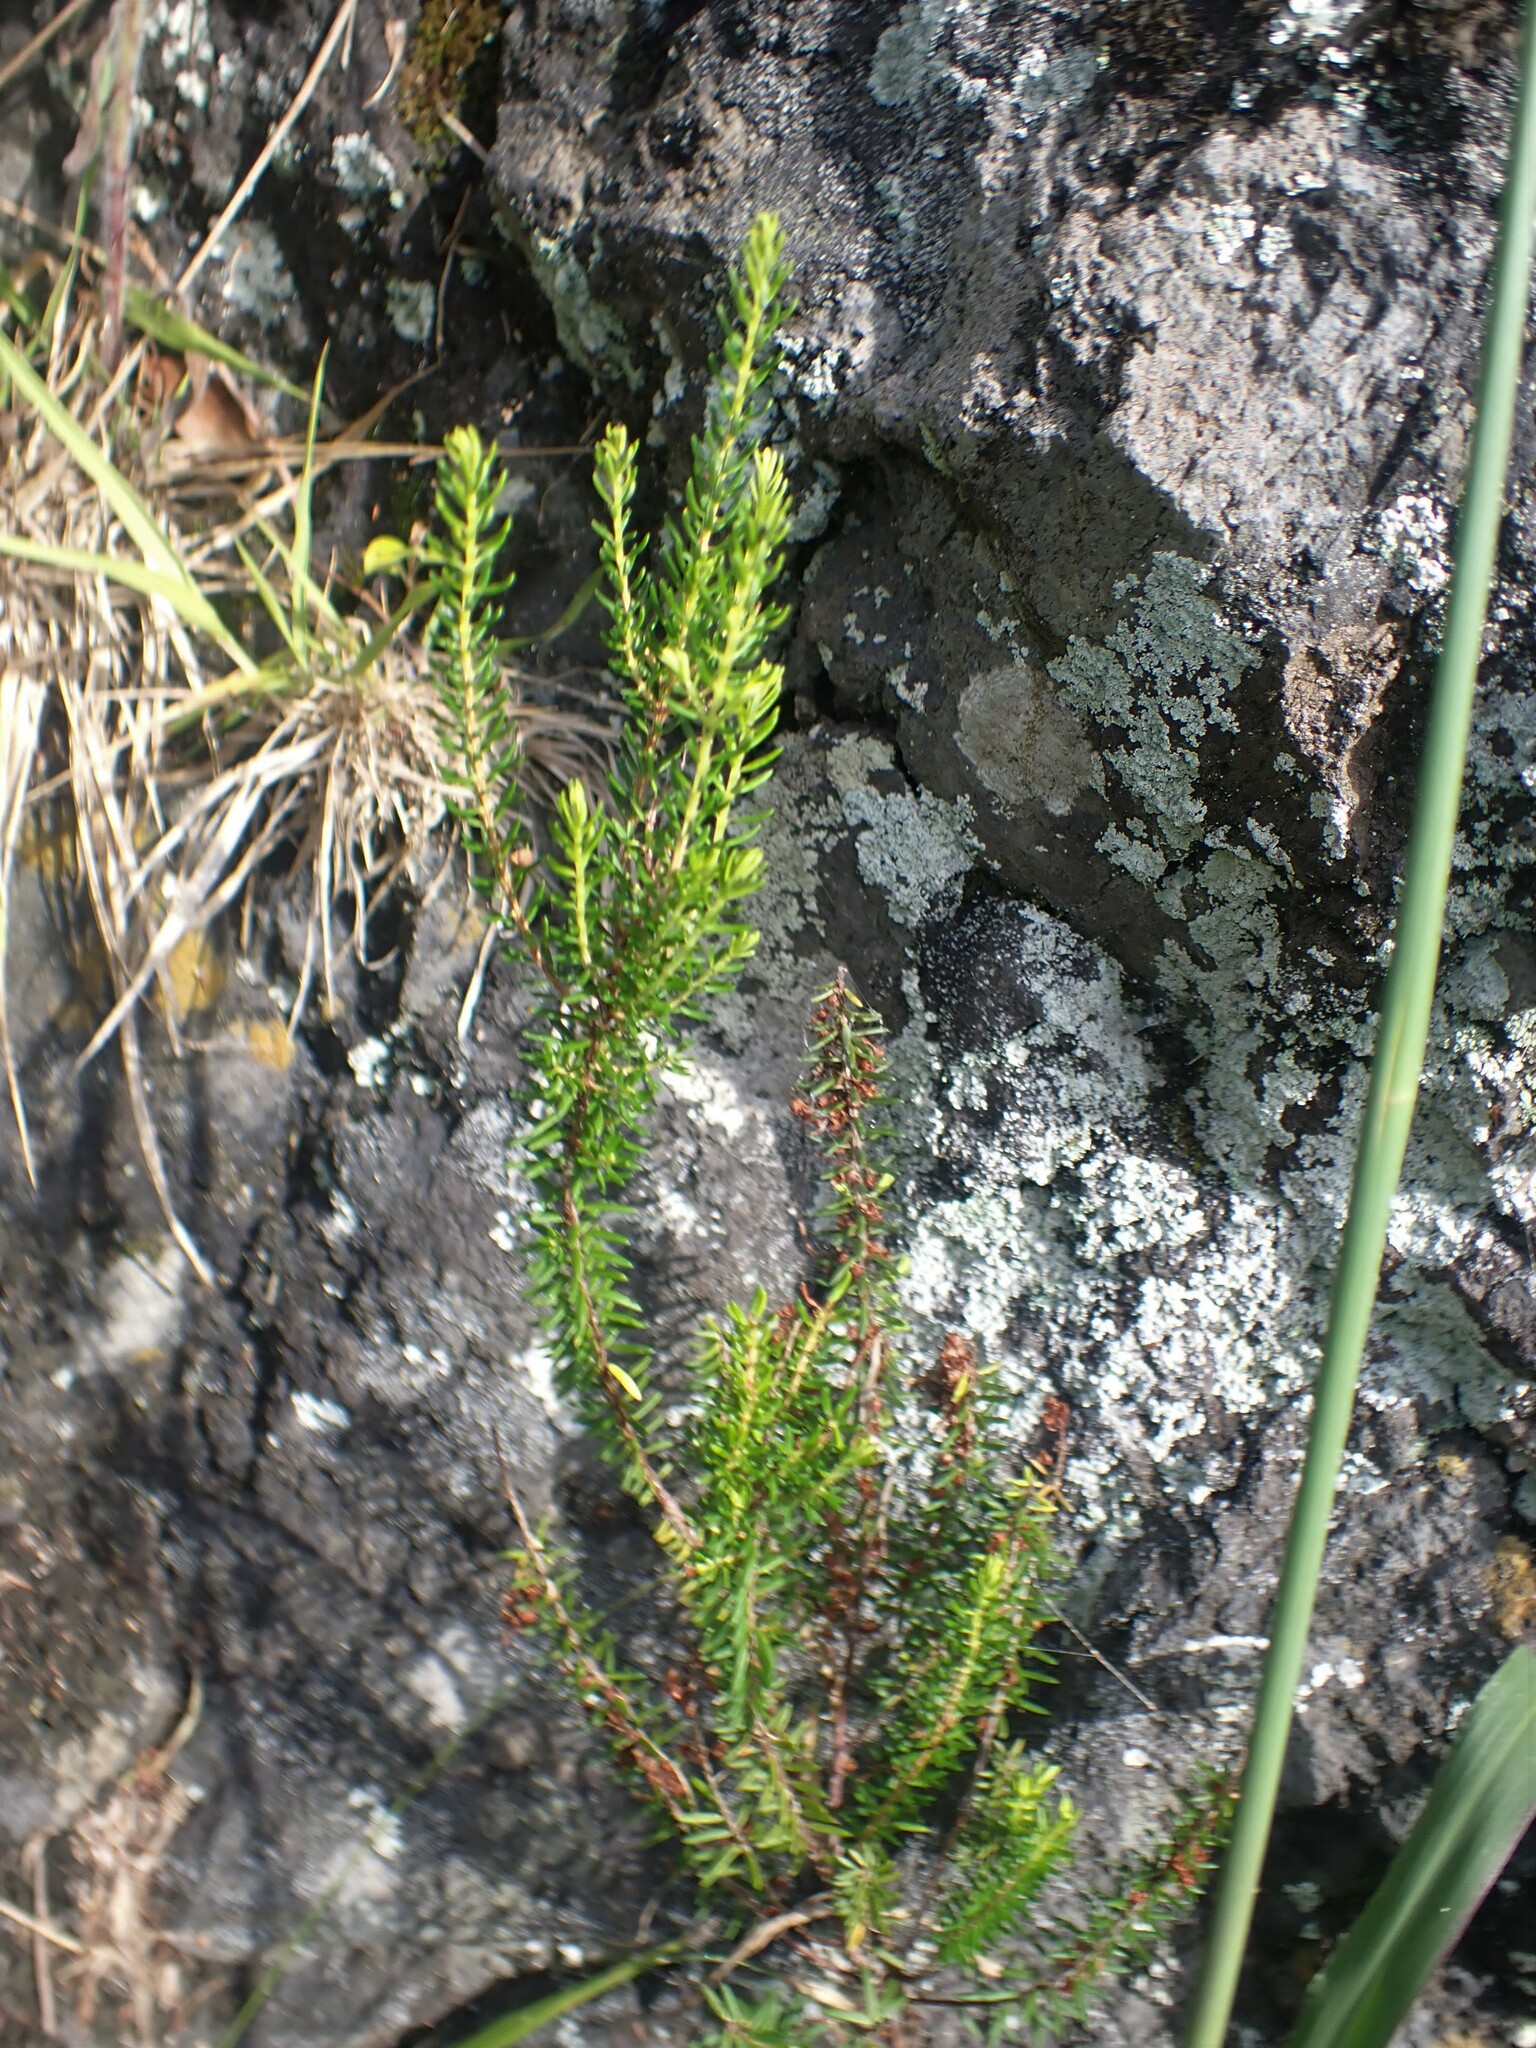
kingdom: Plantae
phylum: Tracheophyta
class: Magnoliopsida
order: Ericales
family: Ericaceae
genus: Erica
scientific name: Erica azorica
